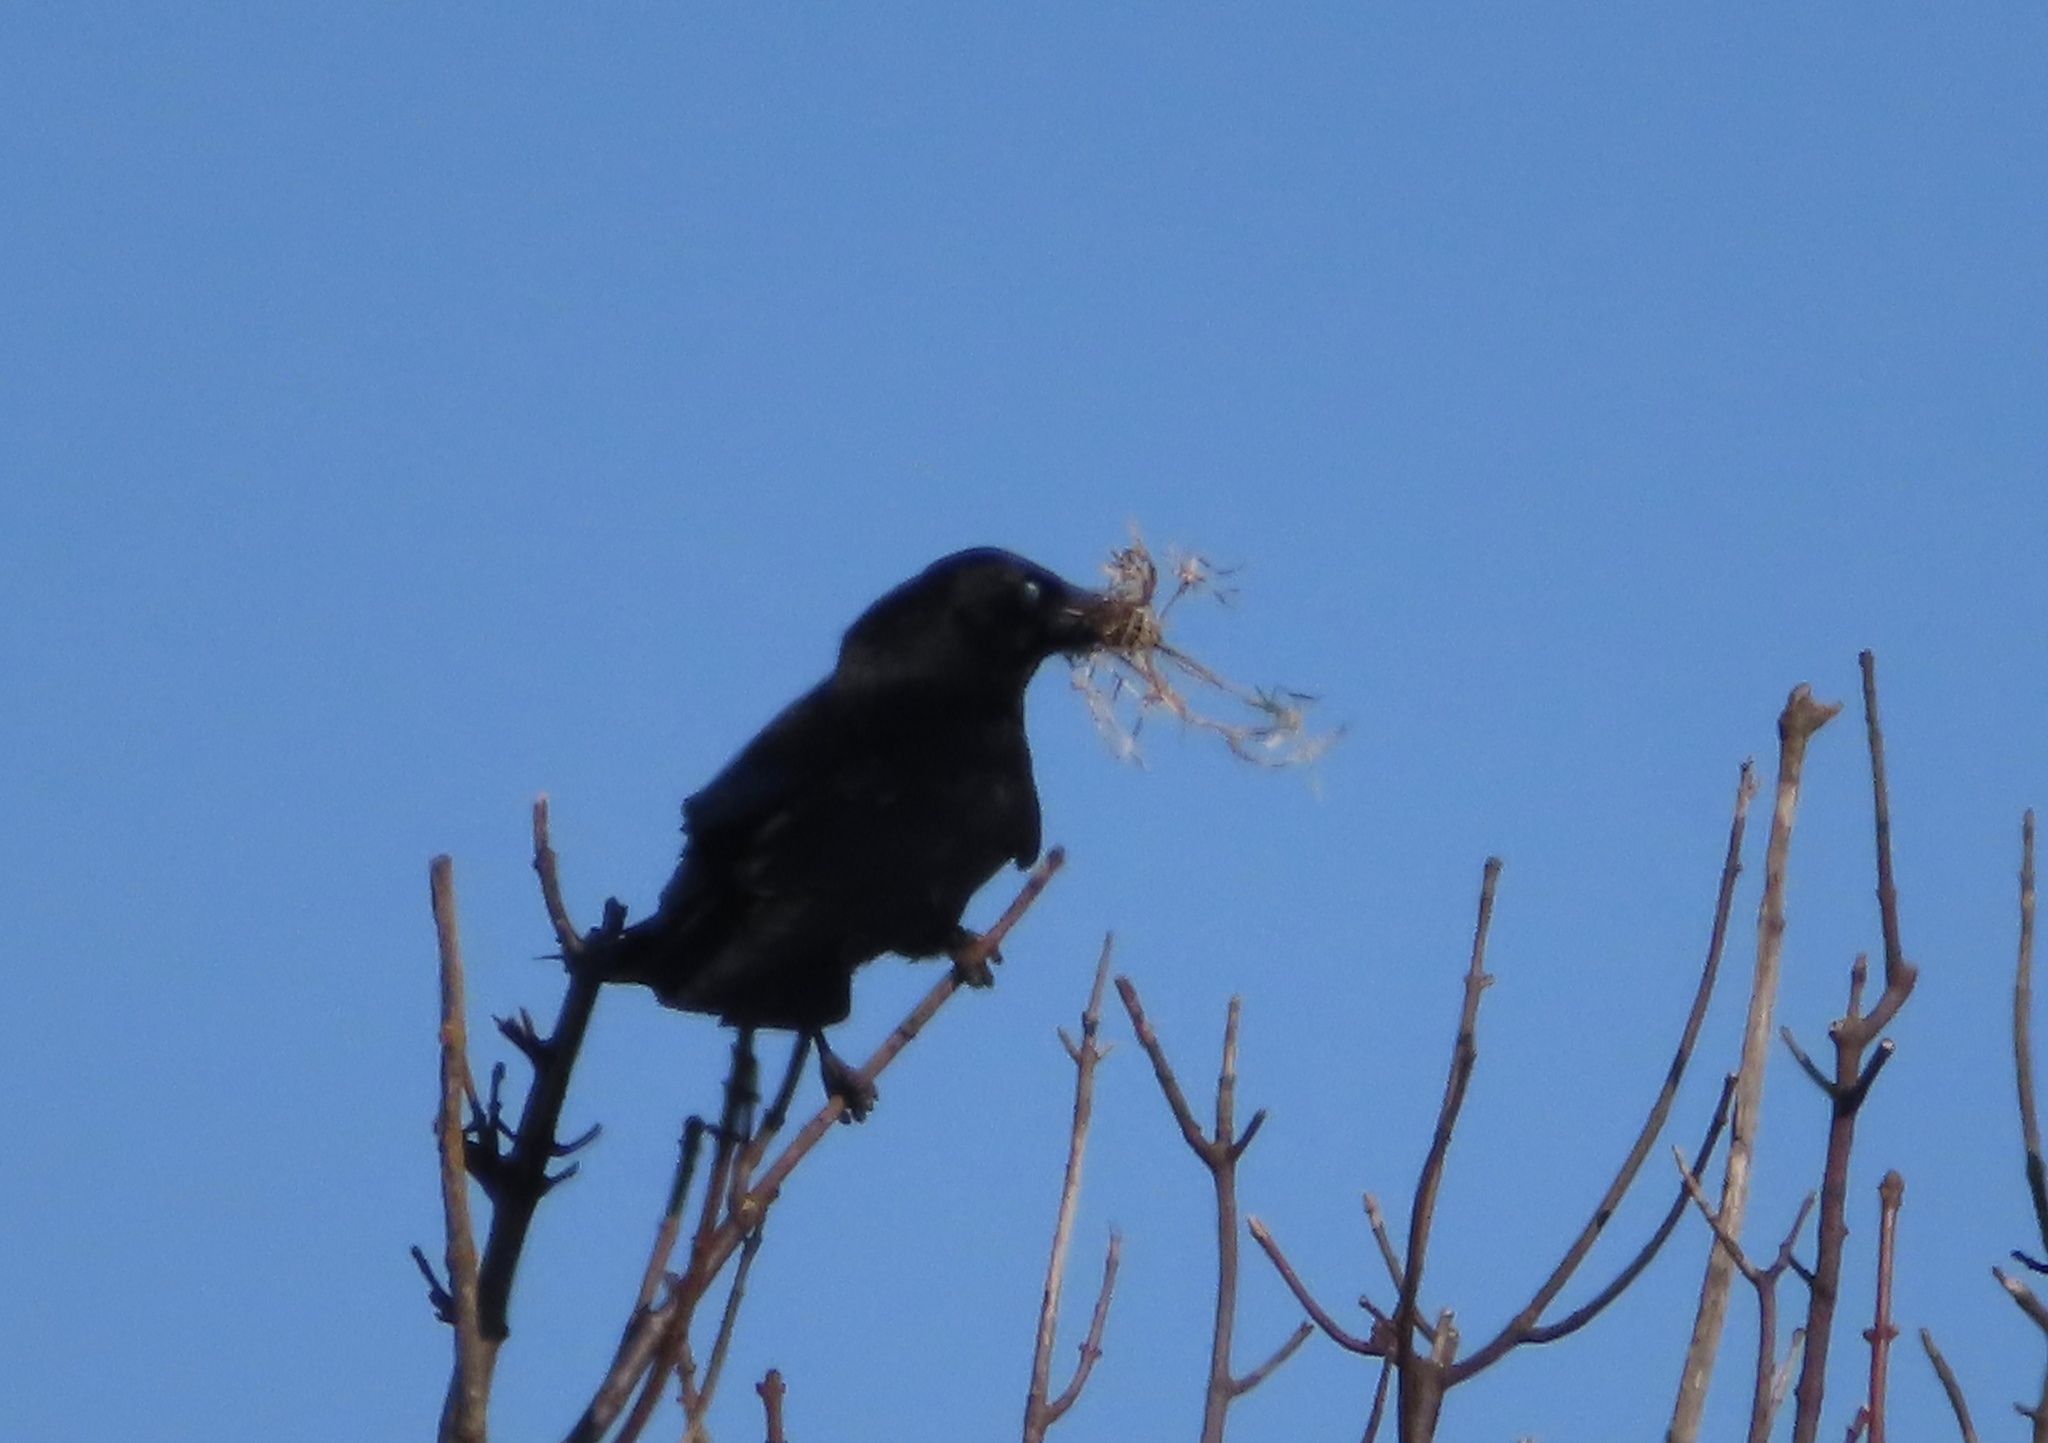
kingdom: Animalia
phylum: Chordata
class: Aves
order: Passeriformes
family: Corvidae
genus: Corvus
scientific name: Corvus corone
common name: Carrion crow
